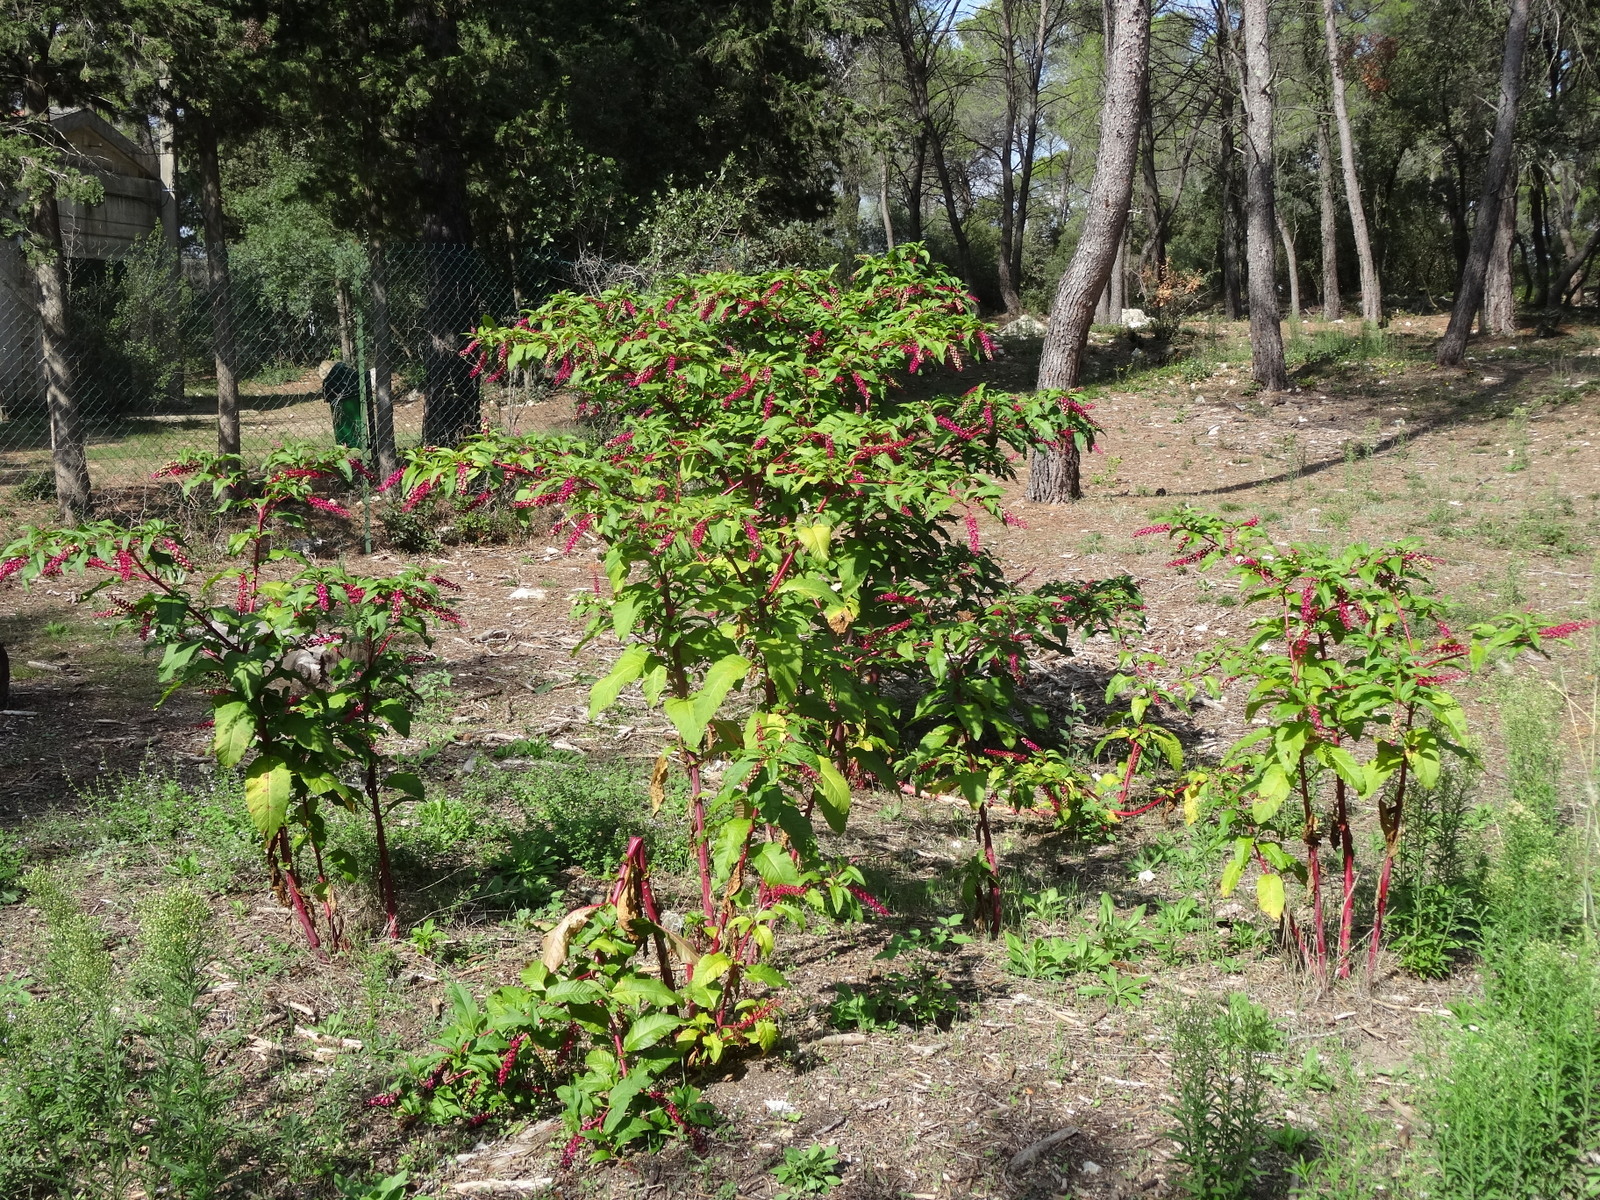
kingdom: Plantae
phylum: Tracheophyta
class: Magnoliopsida
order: Caryophyllales
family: Phytolaccaceae
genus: Phytolacca
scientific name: Phytolacca americana
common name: American pokeweed
